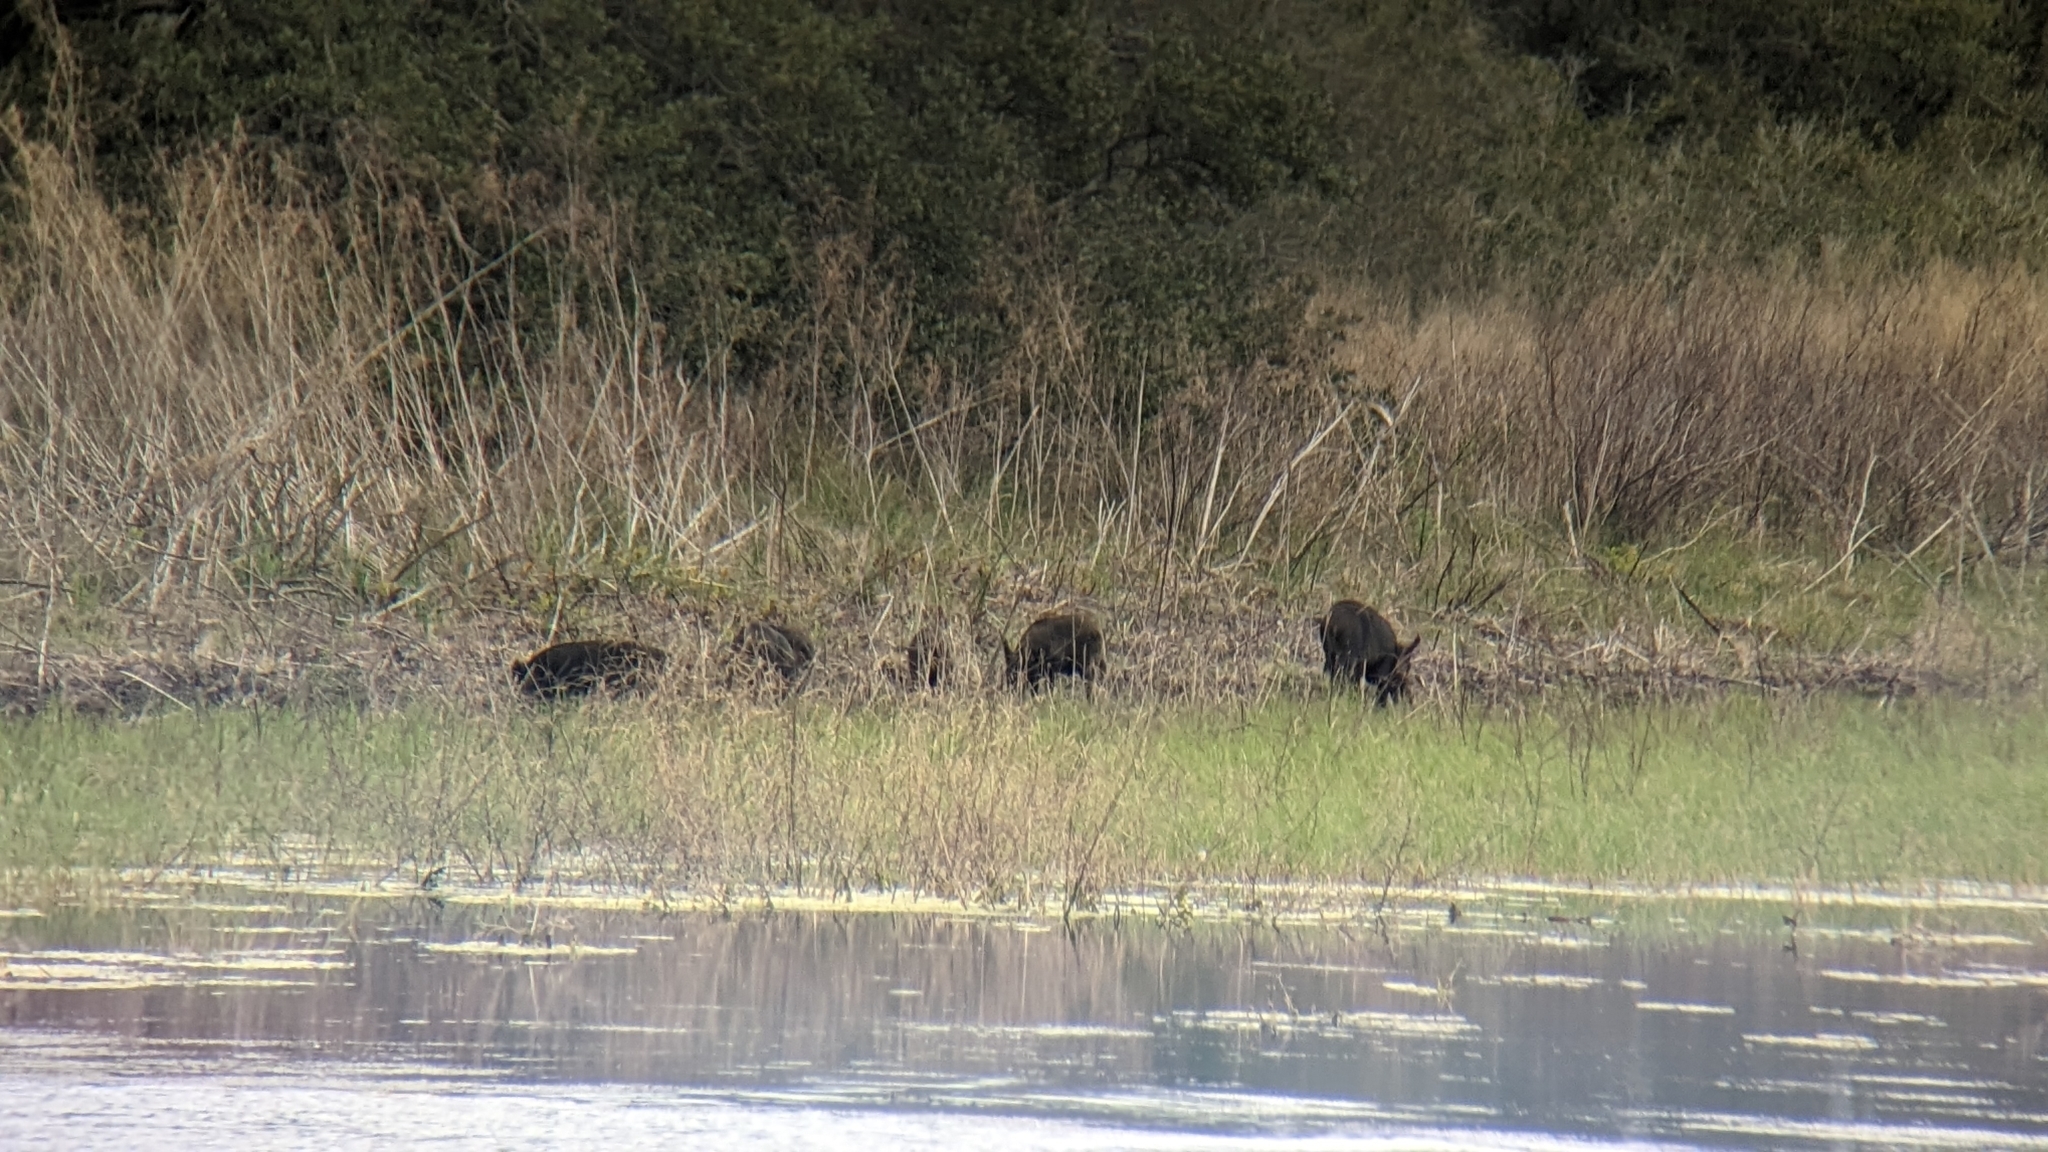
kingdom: Animalia
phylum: Chordata
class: Mammalia
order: Artiodactyla
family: Suidae
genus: Sus
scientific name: Sus scrofa
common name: Wild boar
